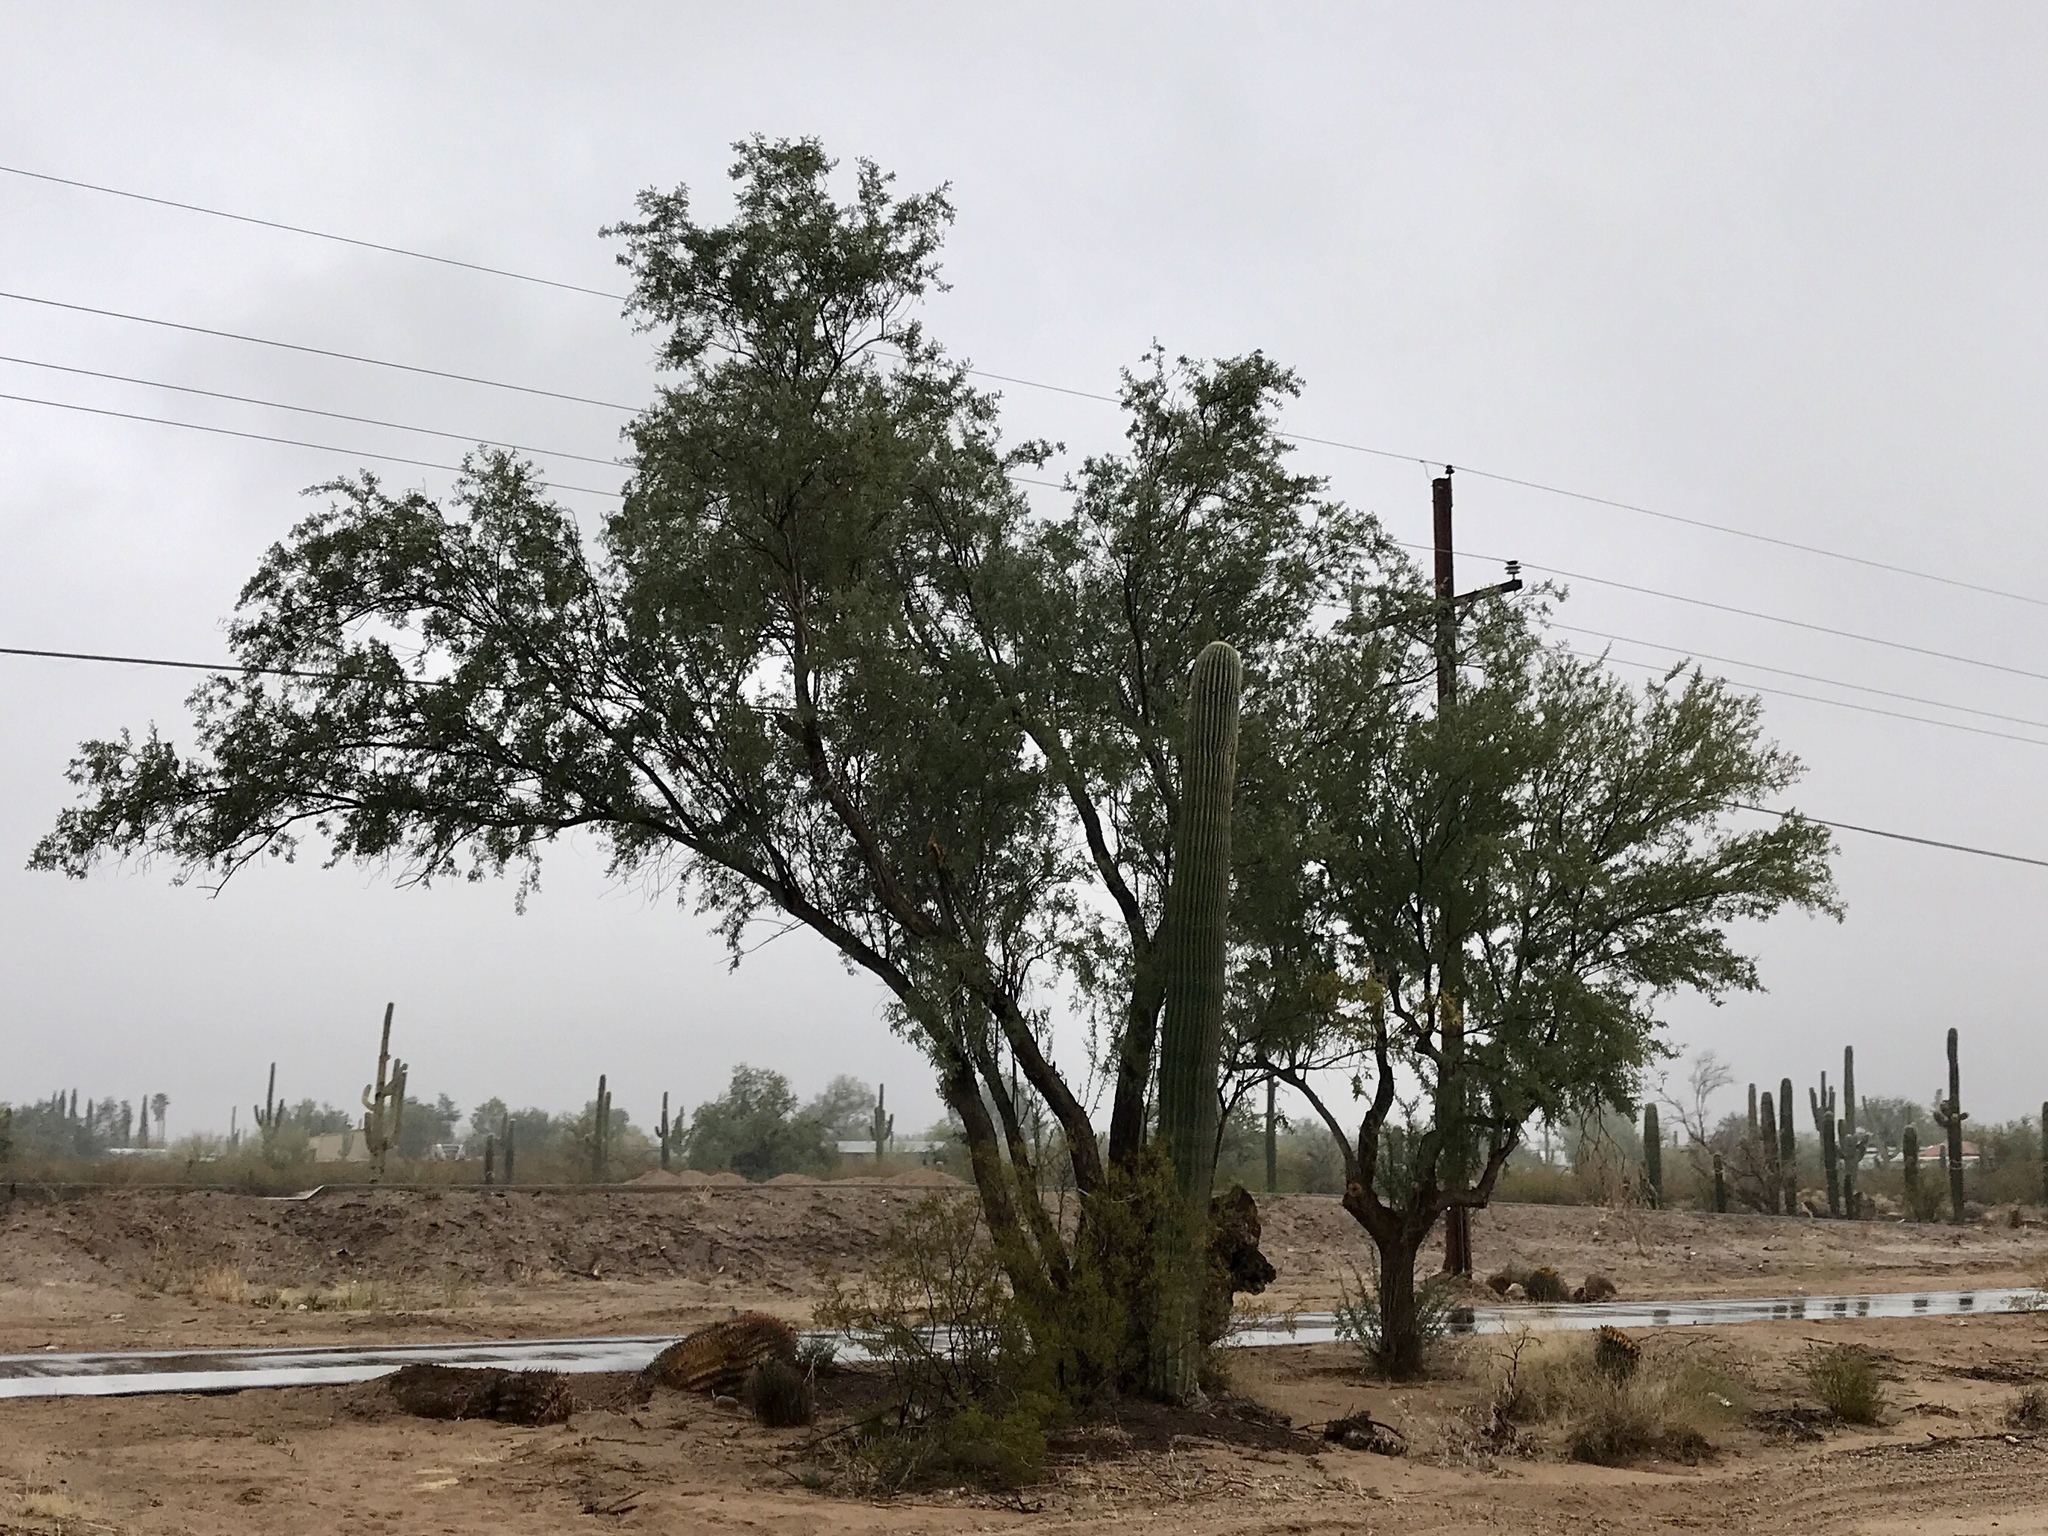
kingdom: Plantae
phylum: Tracheophyta
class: Magnoliopsida
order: Fabales
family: Fabaceae
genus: Olneya
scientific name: Olneya tesota
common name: Desert ironwood
